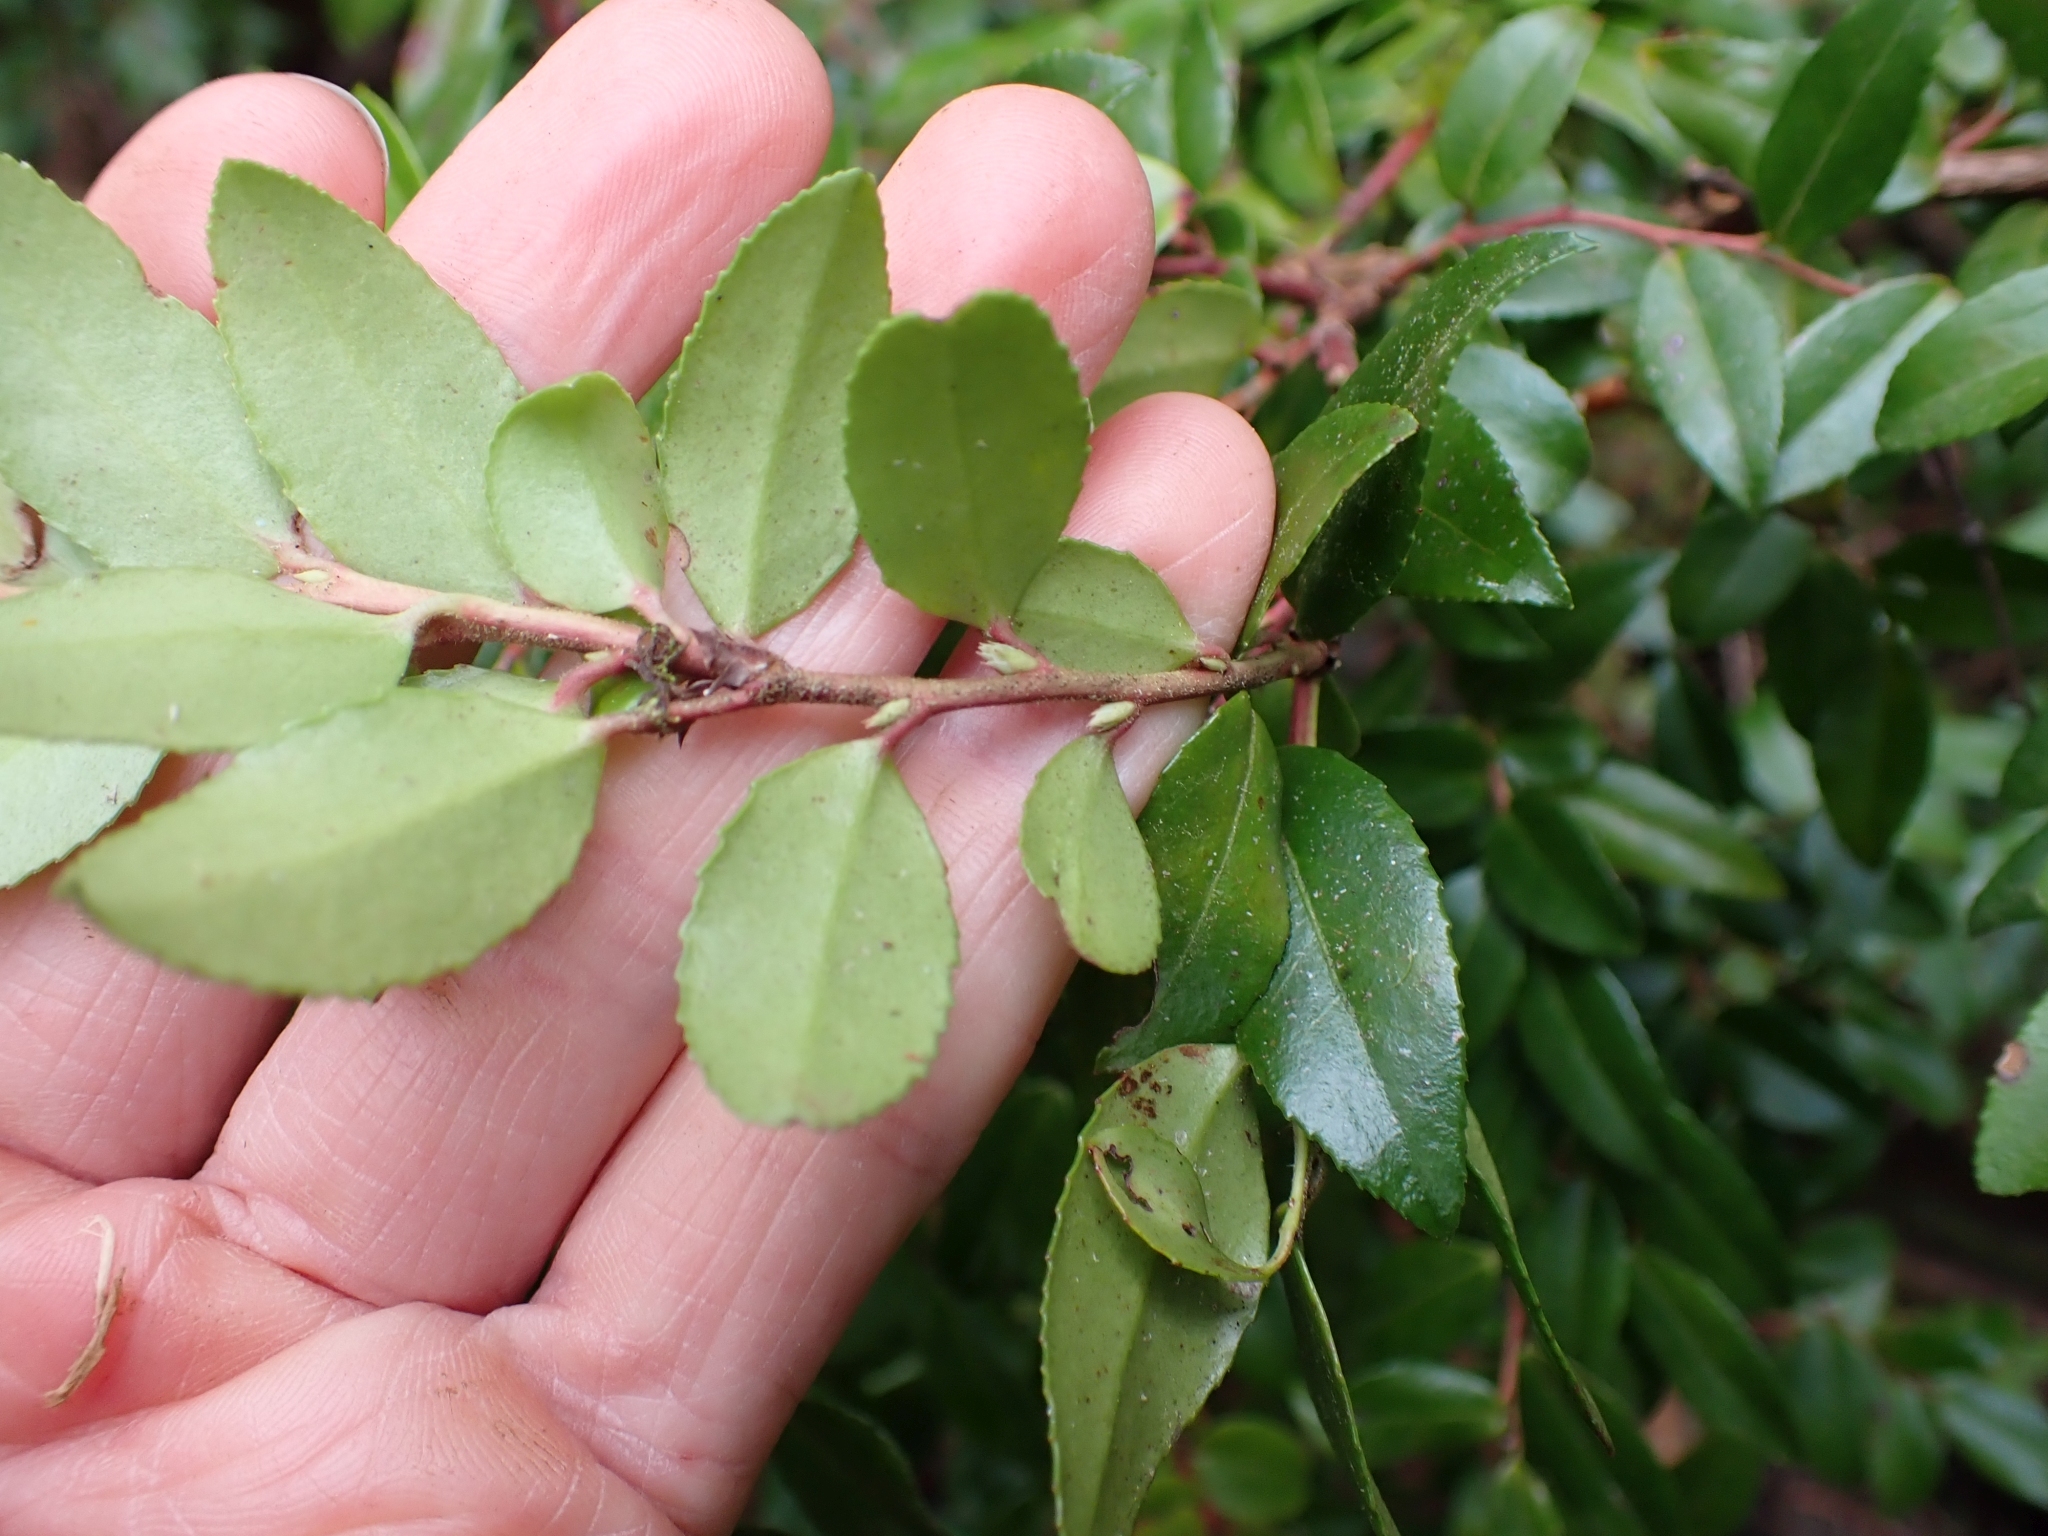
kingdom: Plantae
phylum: Tracheophyta
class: Magnoliopsida
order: Ericales
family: Ericaceae
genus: Vaccinium
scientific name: Vaccinium ovatum
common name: California-huckleberry
